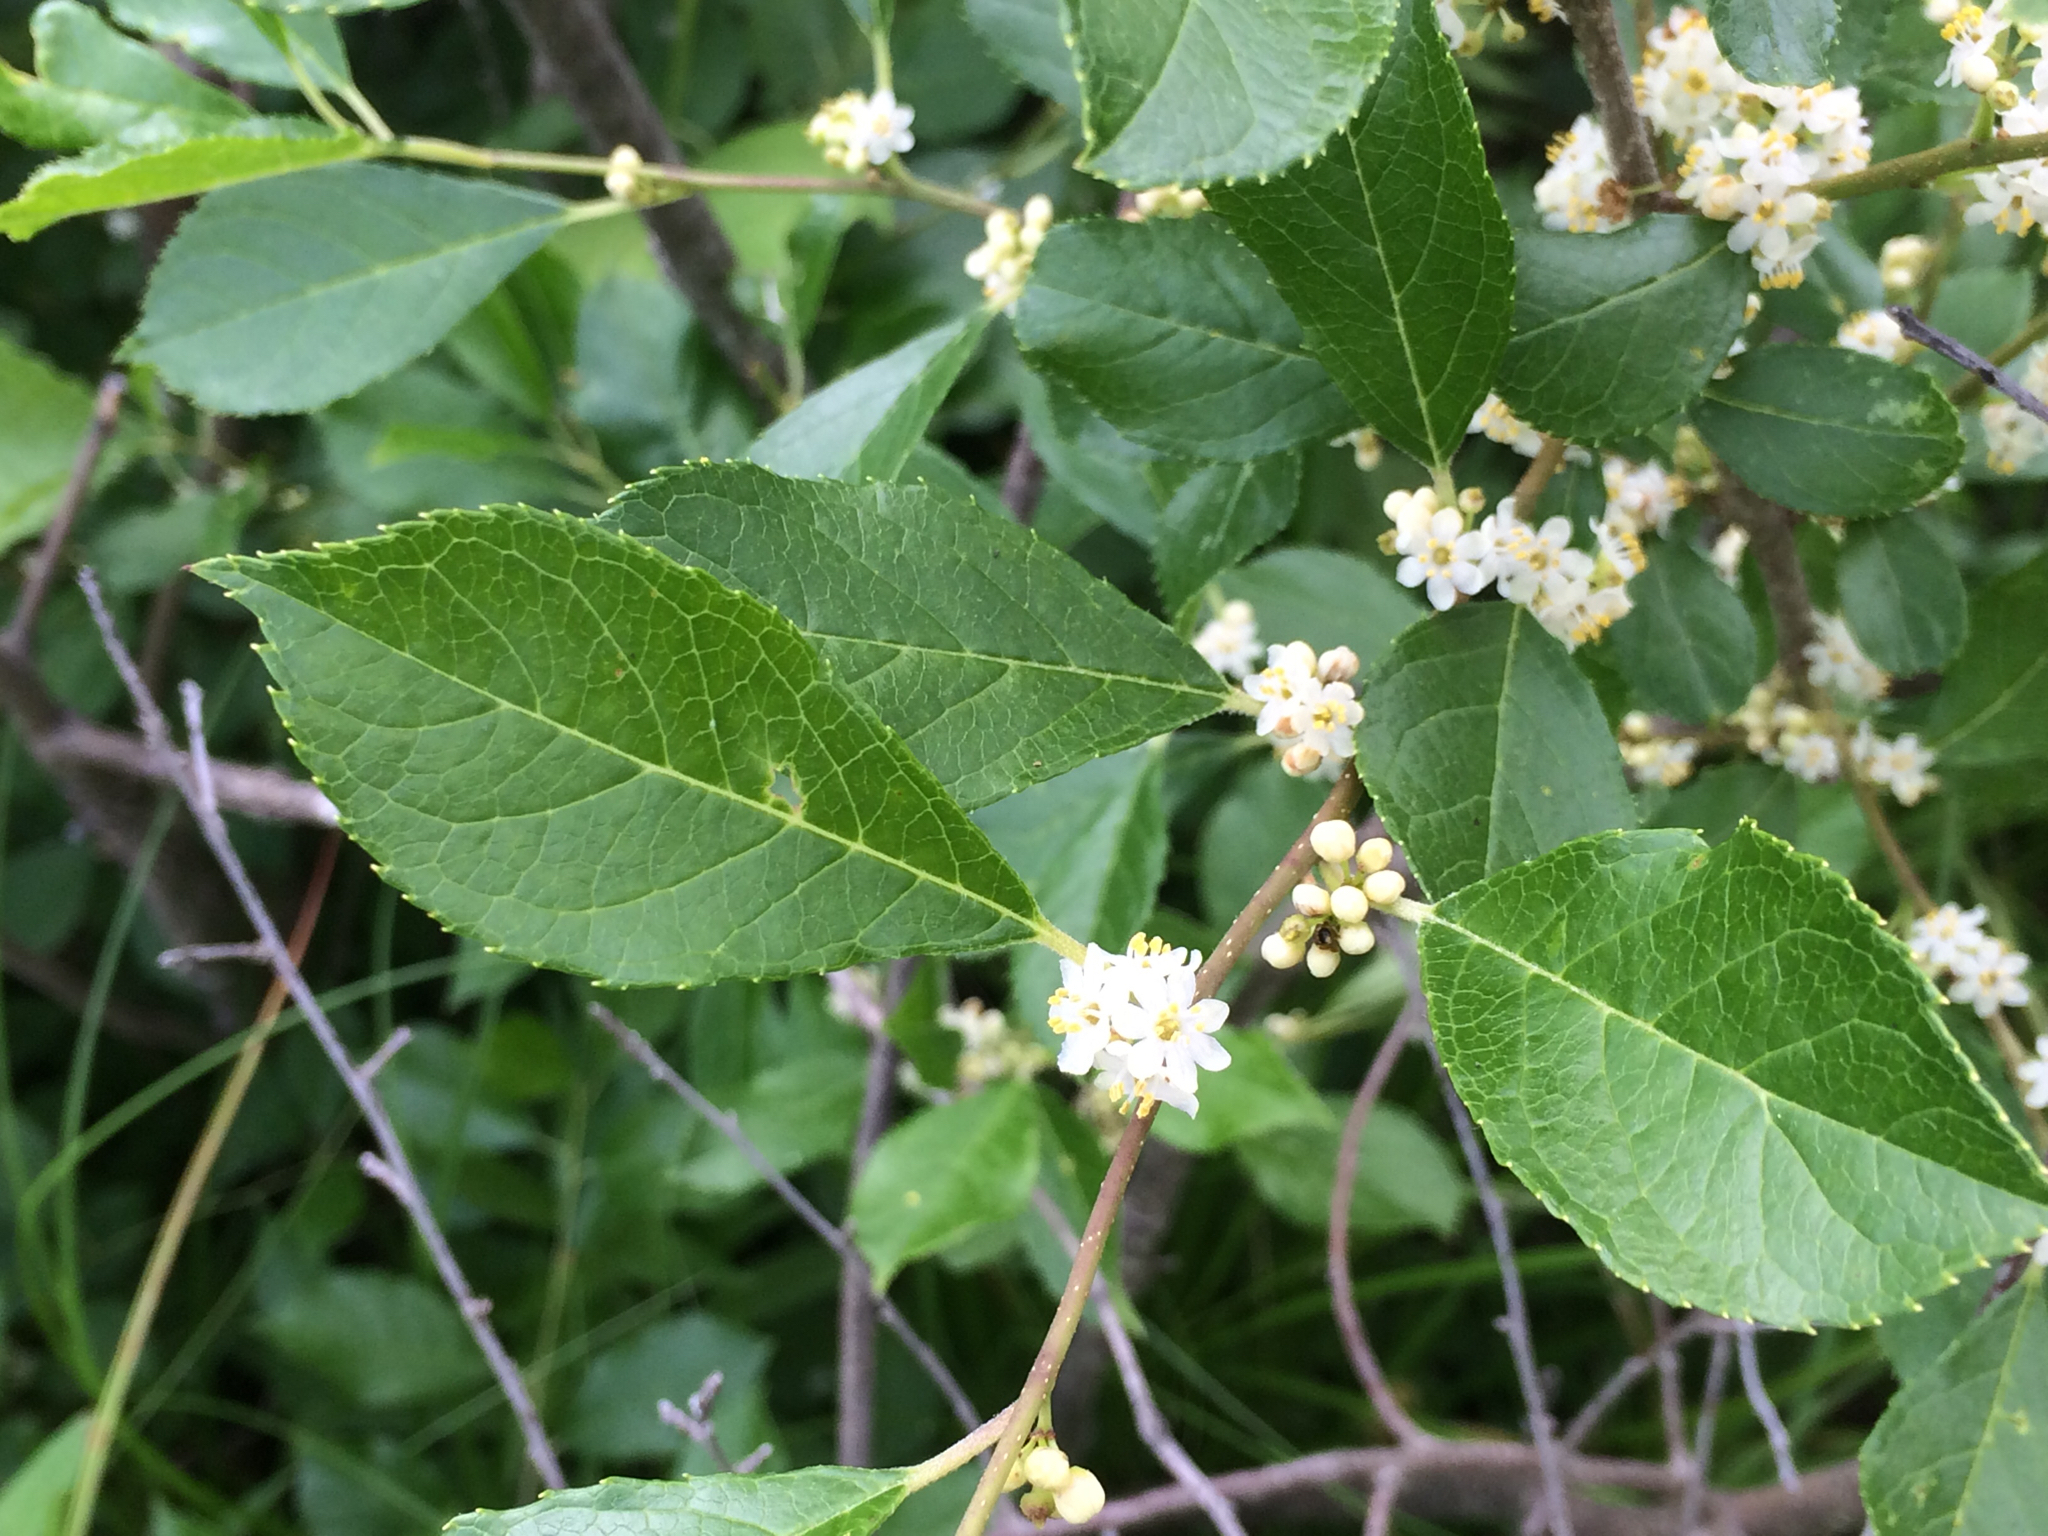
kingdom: Plantae
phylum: Tracheophyta
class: Magnoliopsida
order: Aquifoliales
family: Aquifoliaceae
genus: Ilex
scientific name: Ilex verticillata
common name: Virginia winterberry
